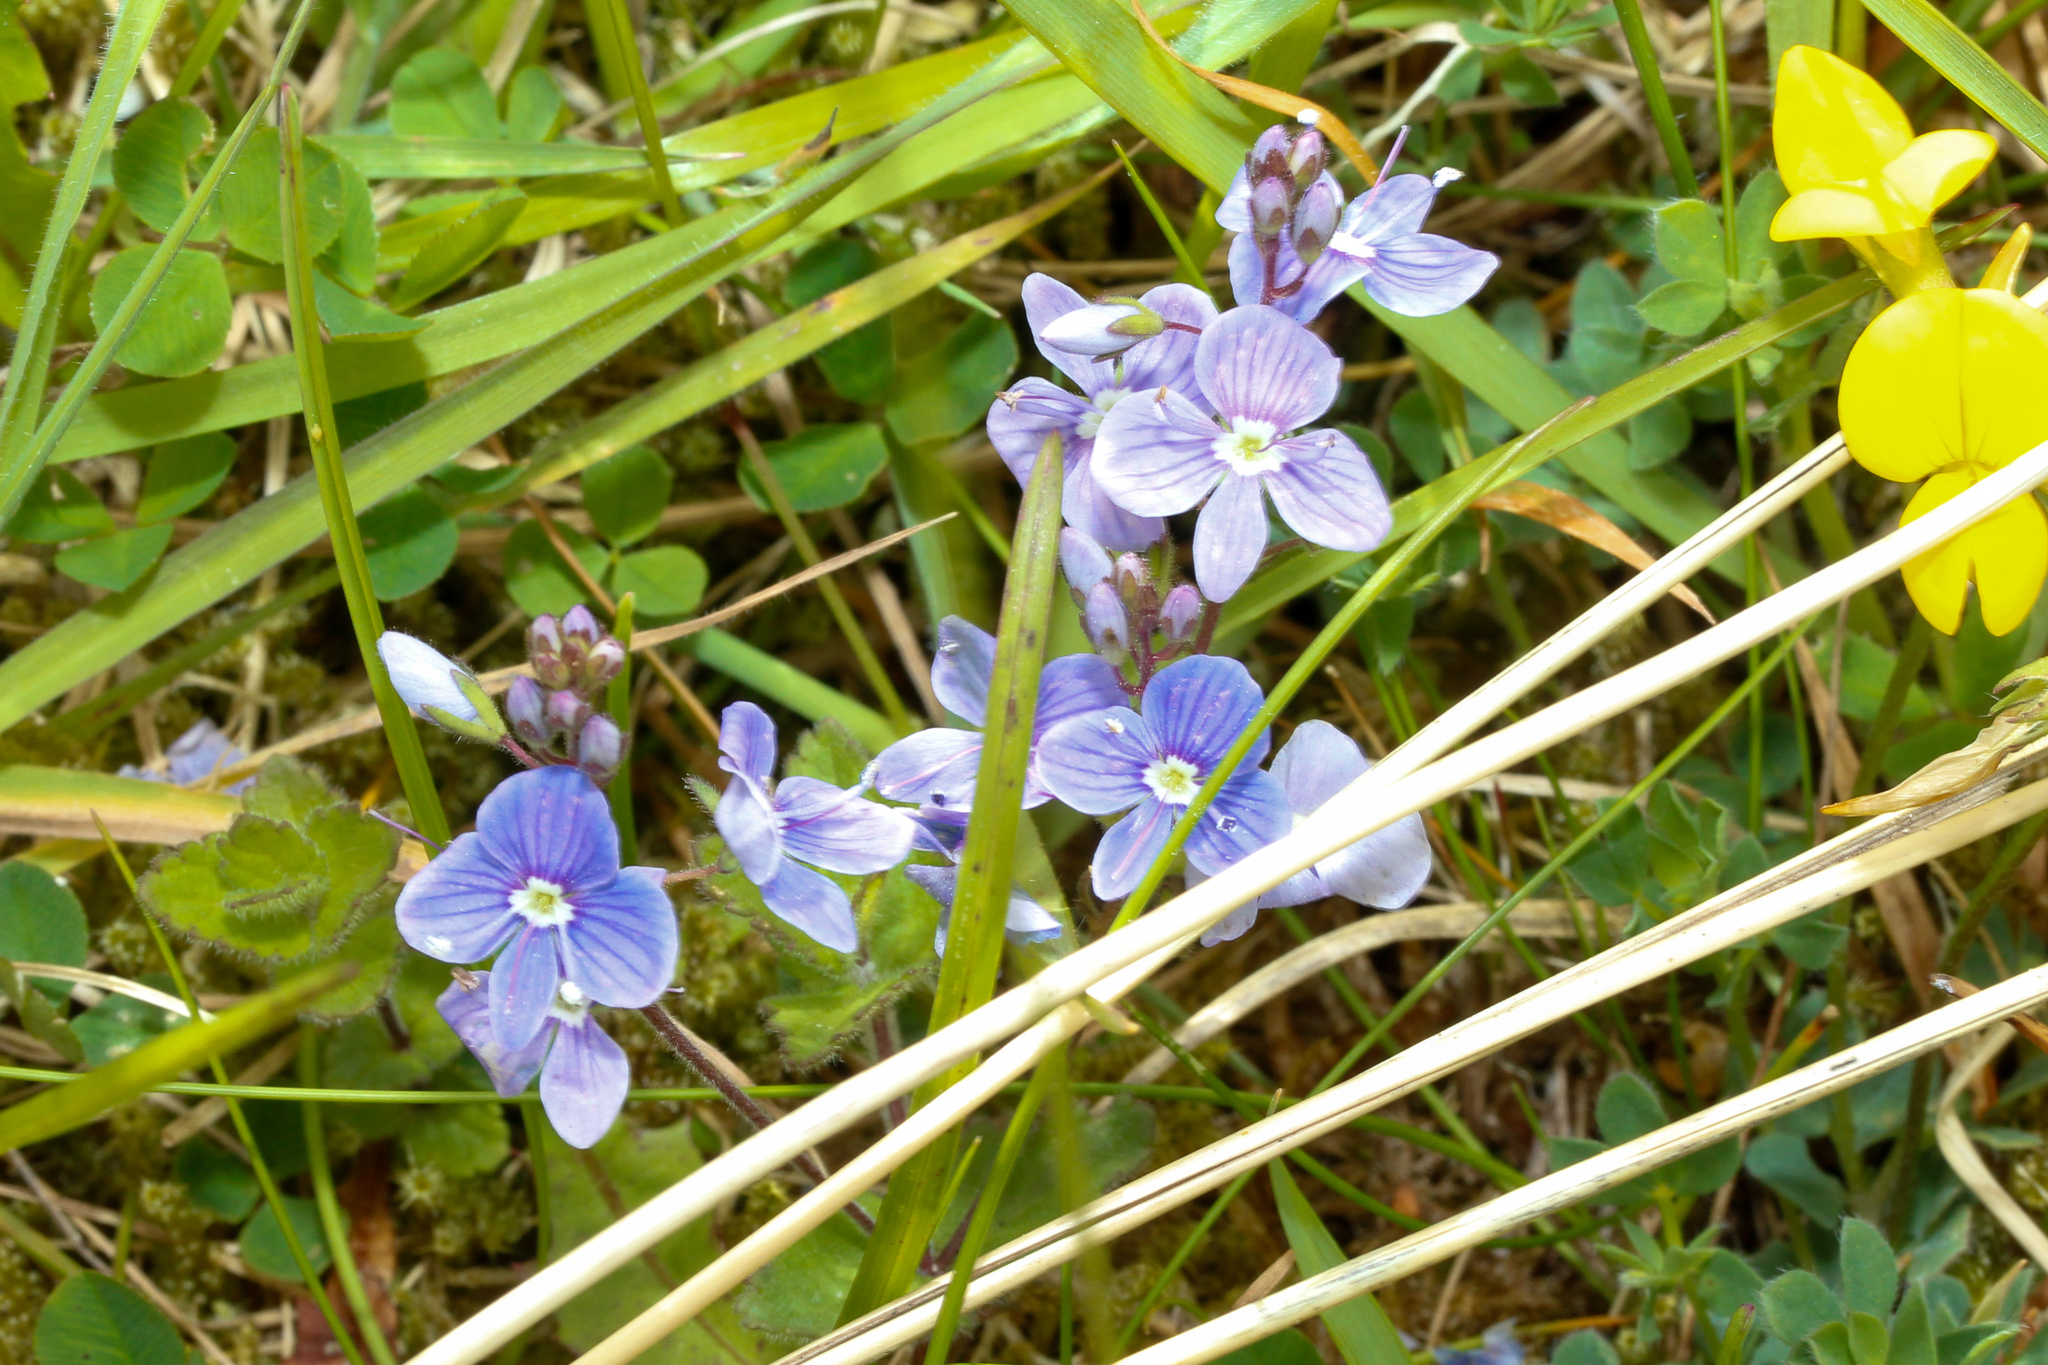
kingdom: Plantae
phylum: Tracheophyta
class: Magnoliopsida
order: Lamiales
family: Plantaginaceae
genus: Veronica
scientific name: Veronica chamaedrys
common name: Germander speedwell
